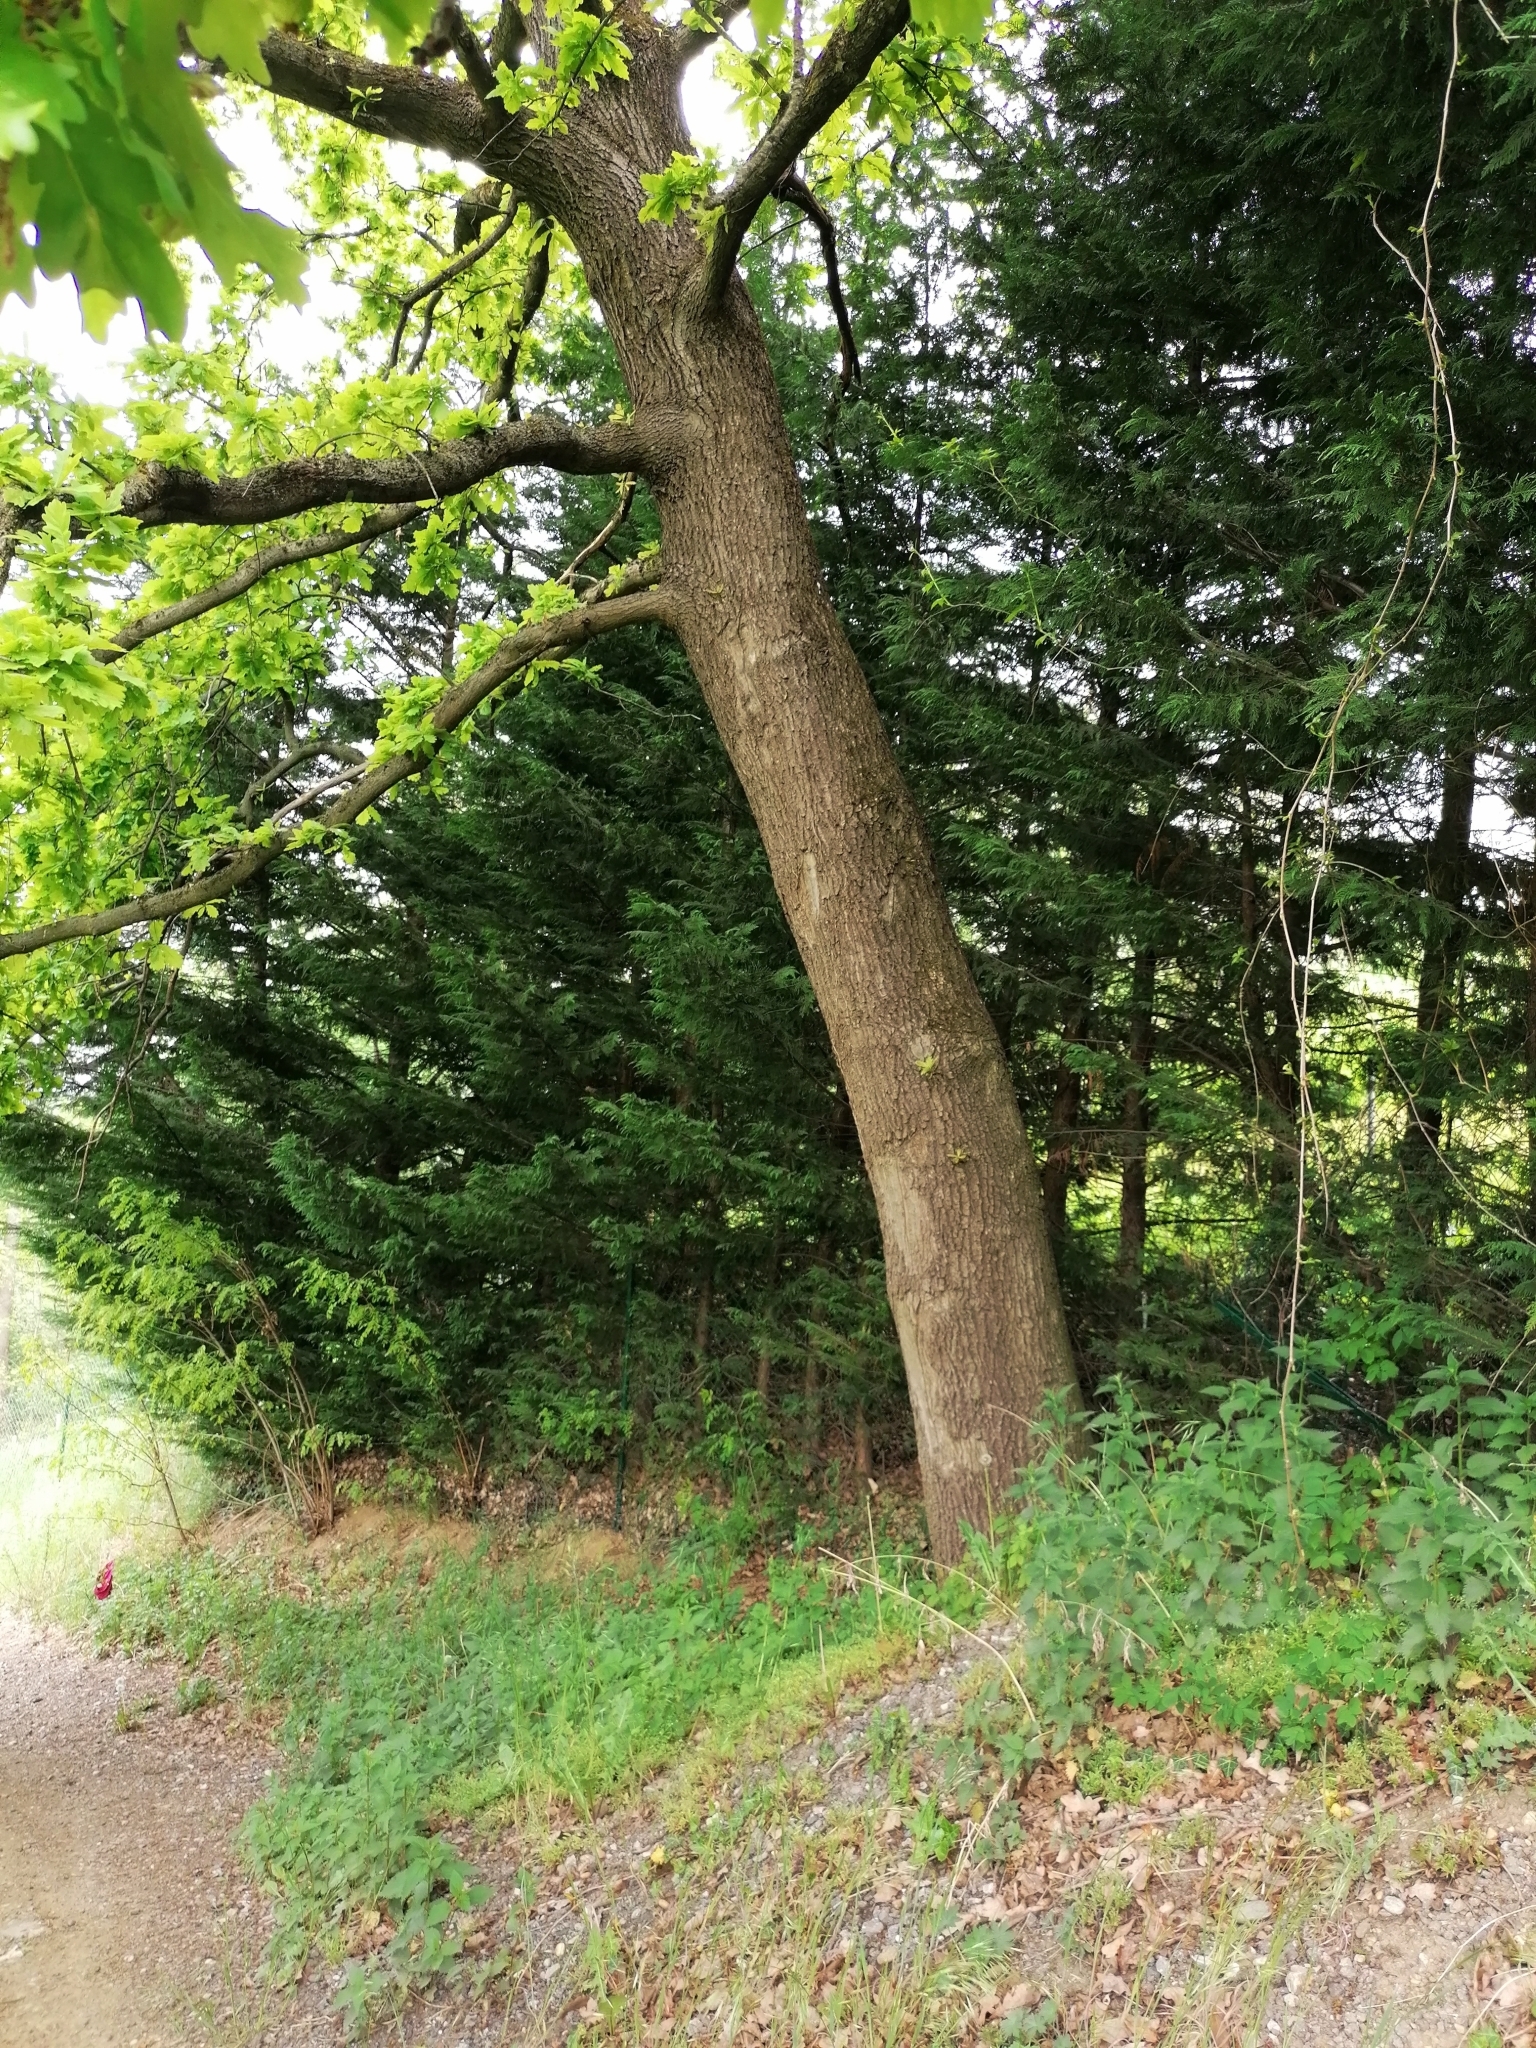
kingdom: Plantae
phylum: Tracheophyta
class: Magnoliopsida
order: Fagales
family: Fagaceae
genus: Quercus
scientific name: Quercus robur
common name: Pedunculate oak
